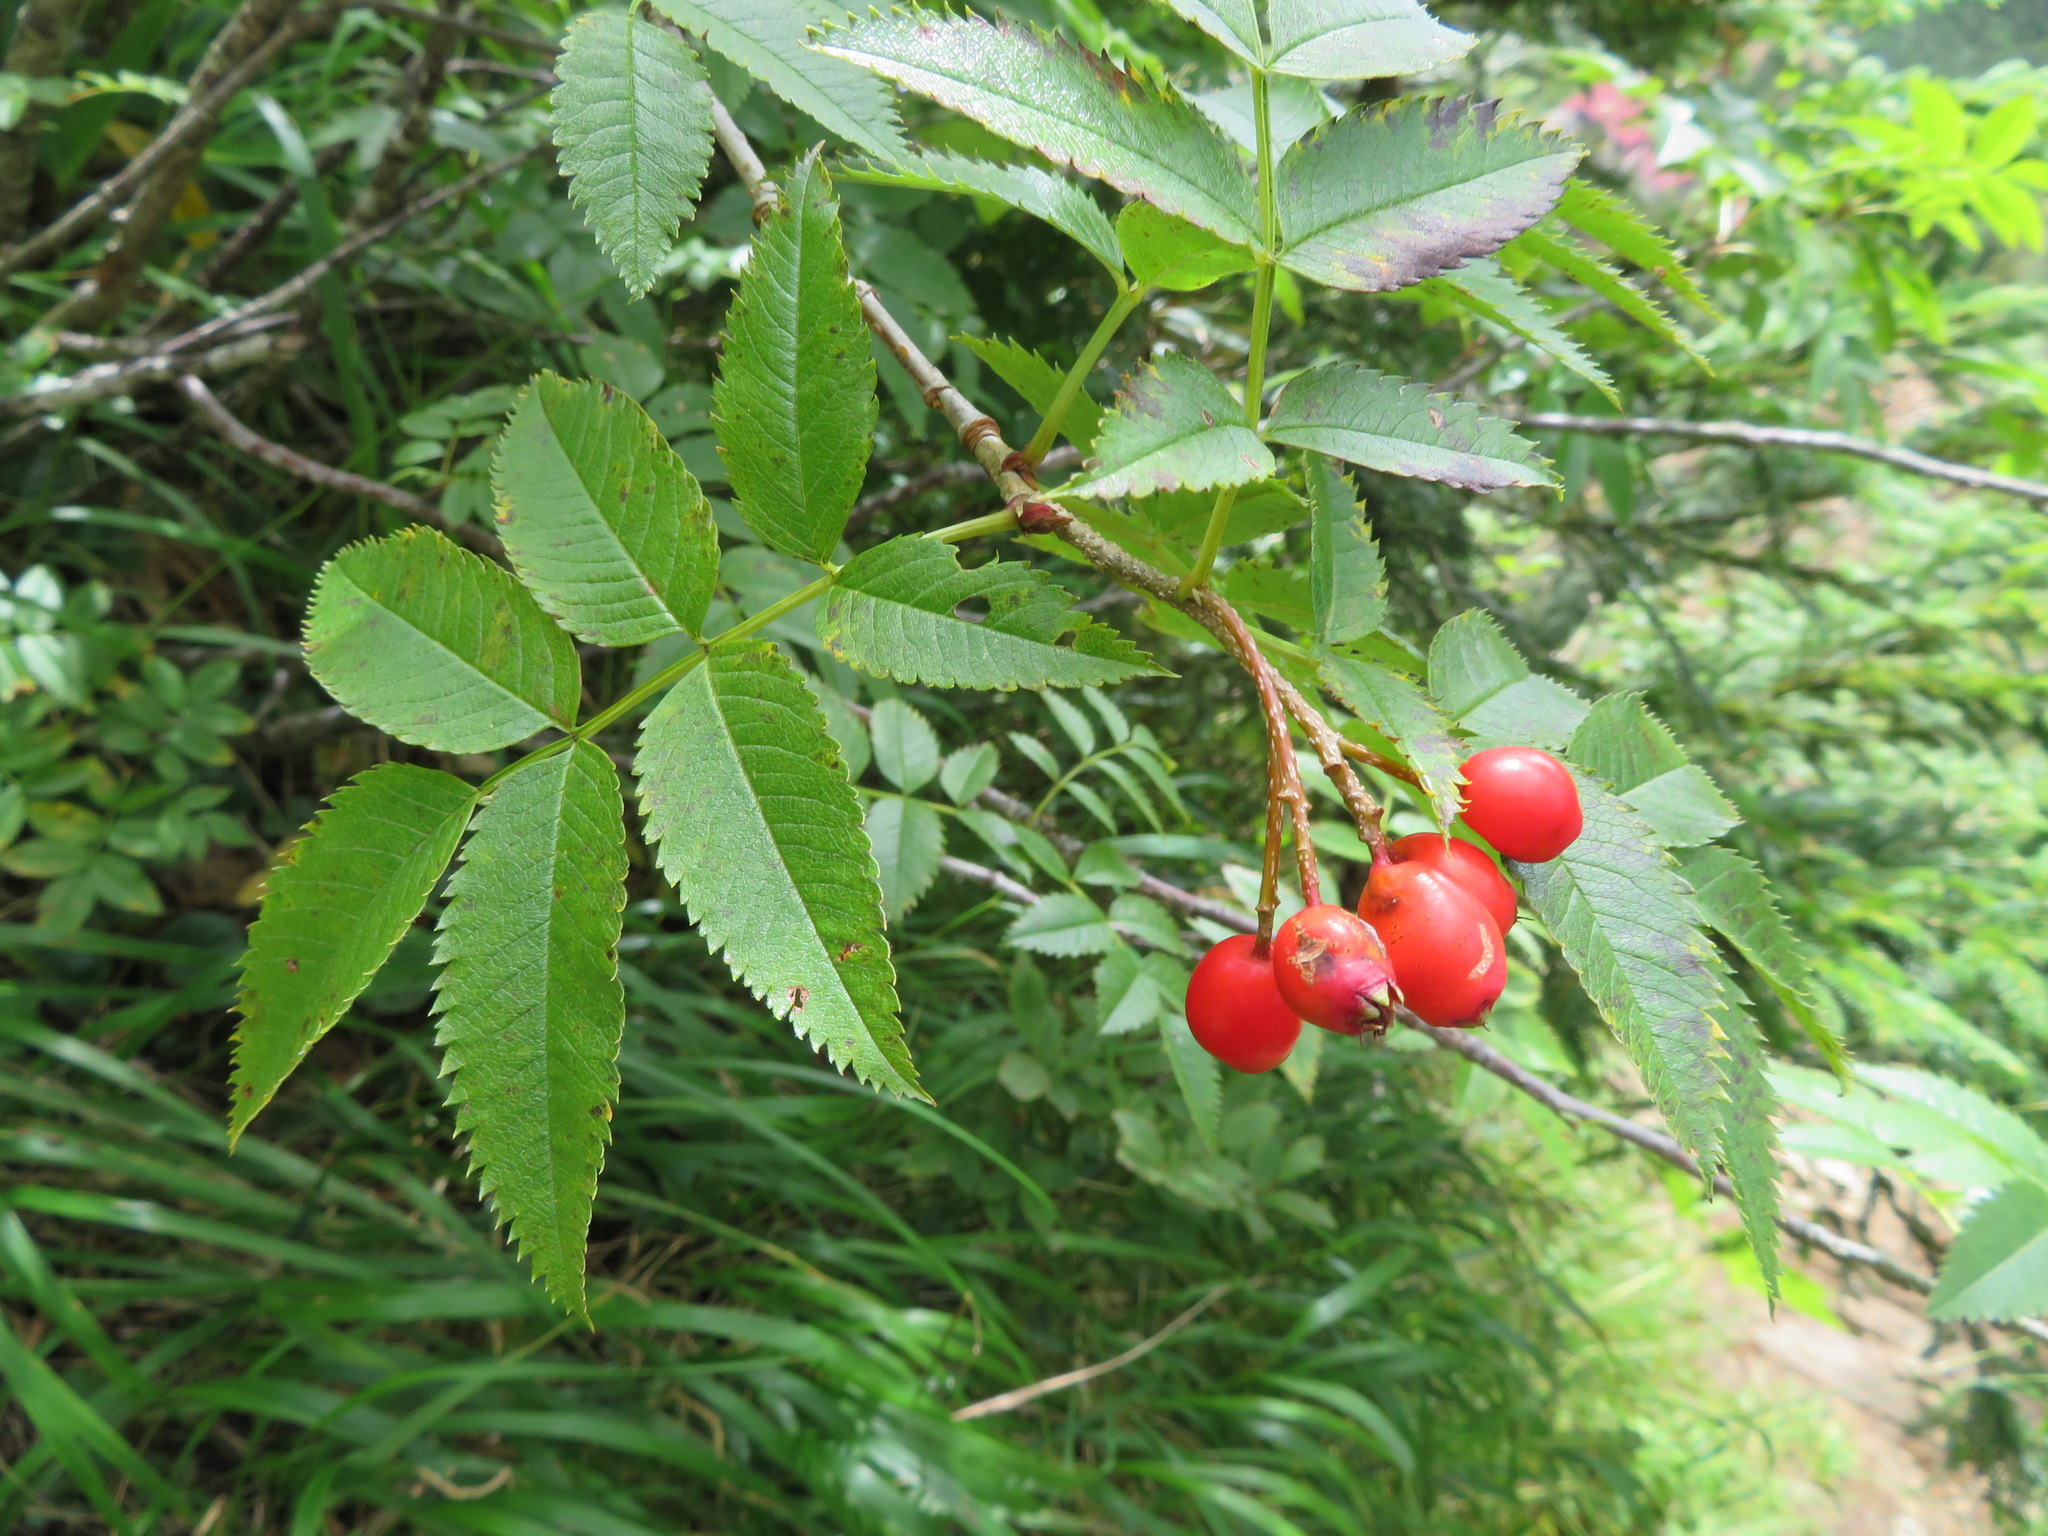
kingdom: Plantae
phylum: Tracheophyta
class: Magnoliopsida
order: Rosales
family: Rosaceae
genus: Sorbus
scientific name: Sorbus sambucifolia
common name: Siberian mountain-ash
